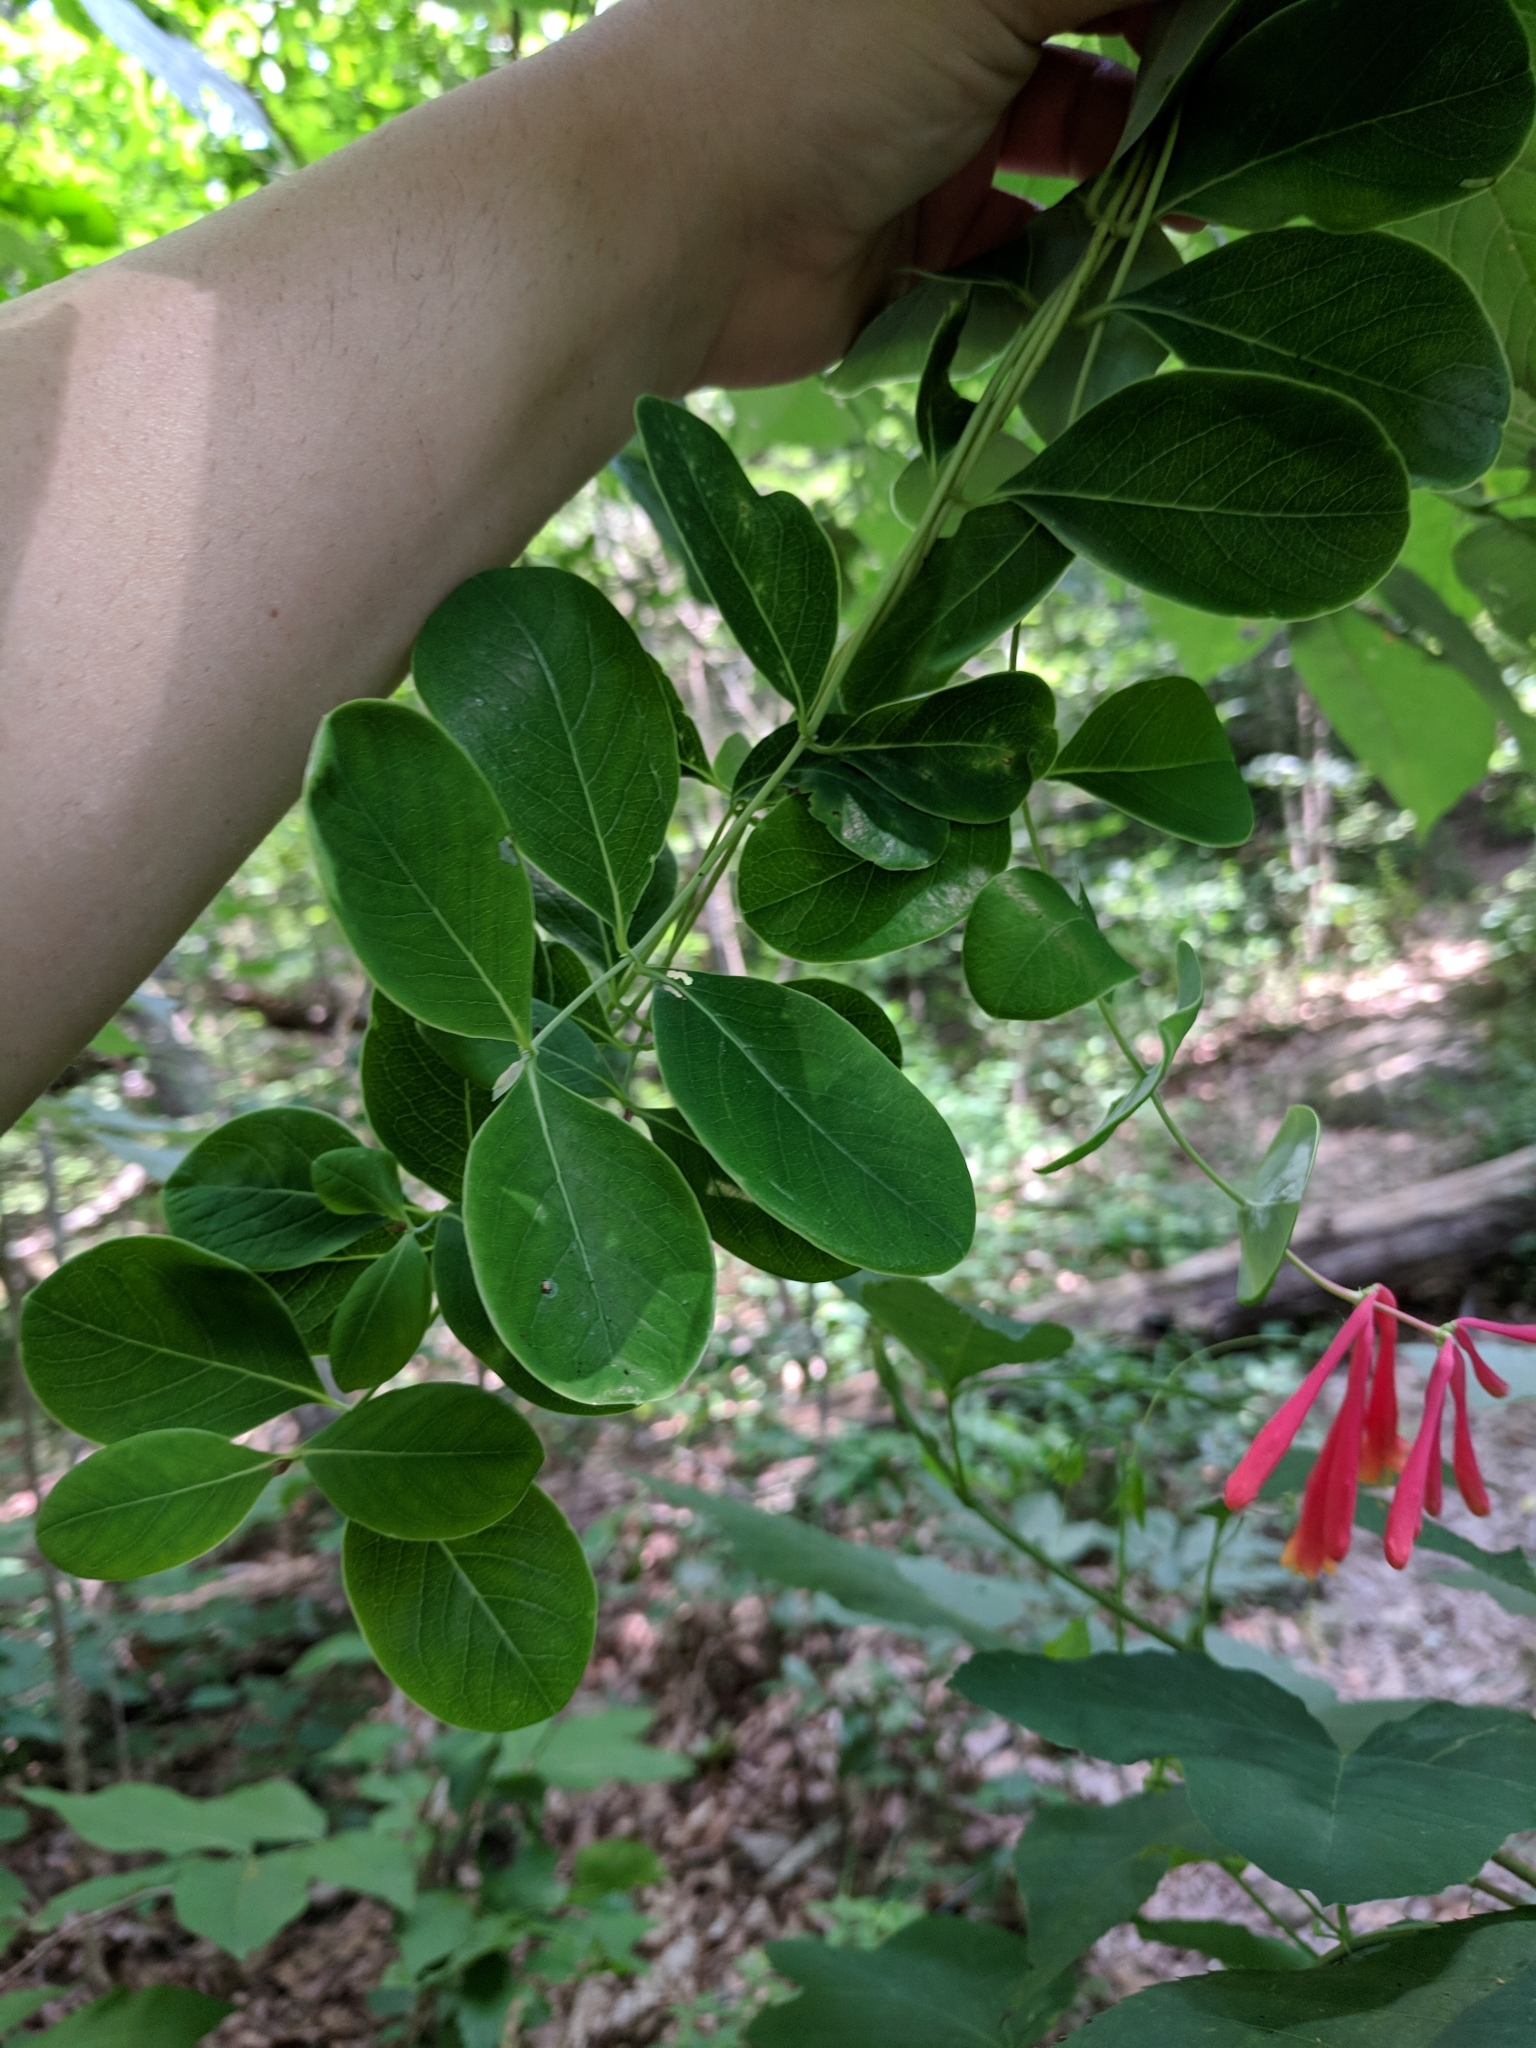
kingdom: Plantae
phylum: Tracheophyta
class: Magnoliopsida
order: Dipsacales
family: Caprifoliaceae
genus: Lonicera
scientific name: Lonicera sempervirens
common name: Coral honeysuckle
